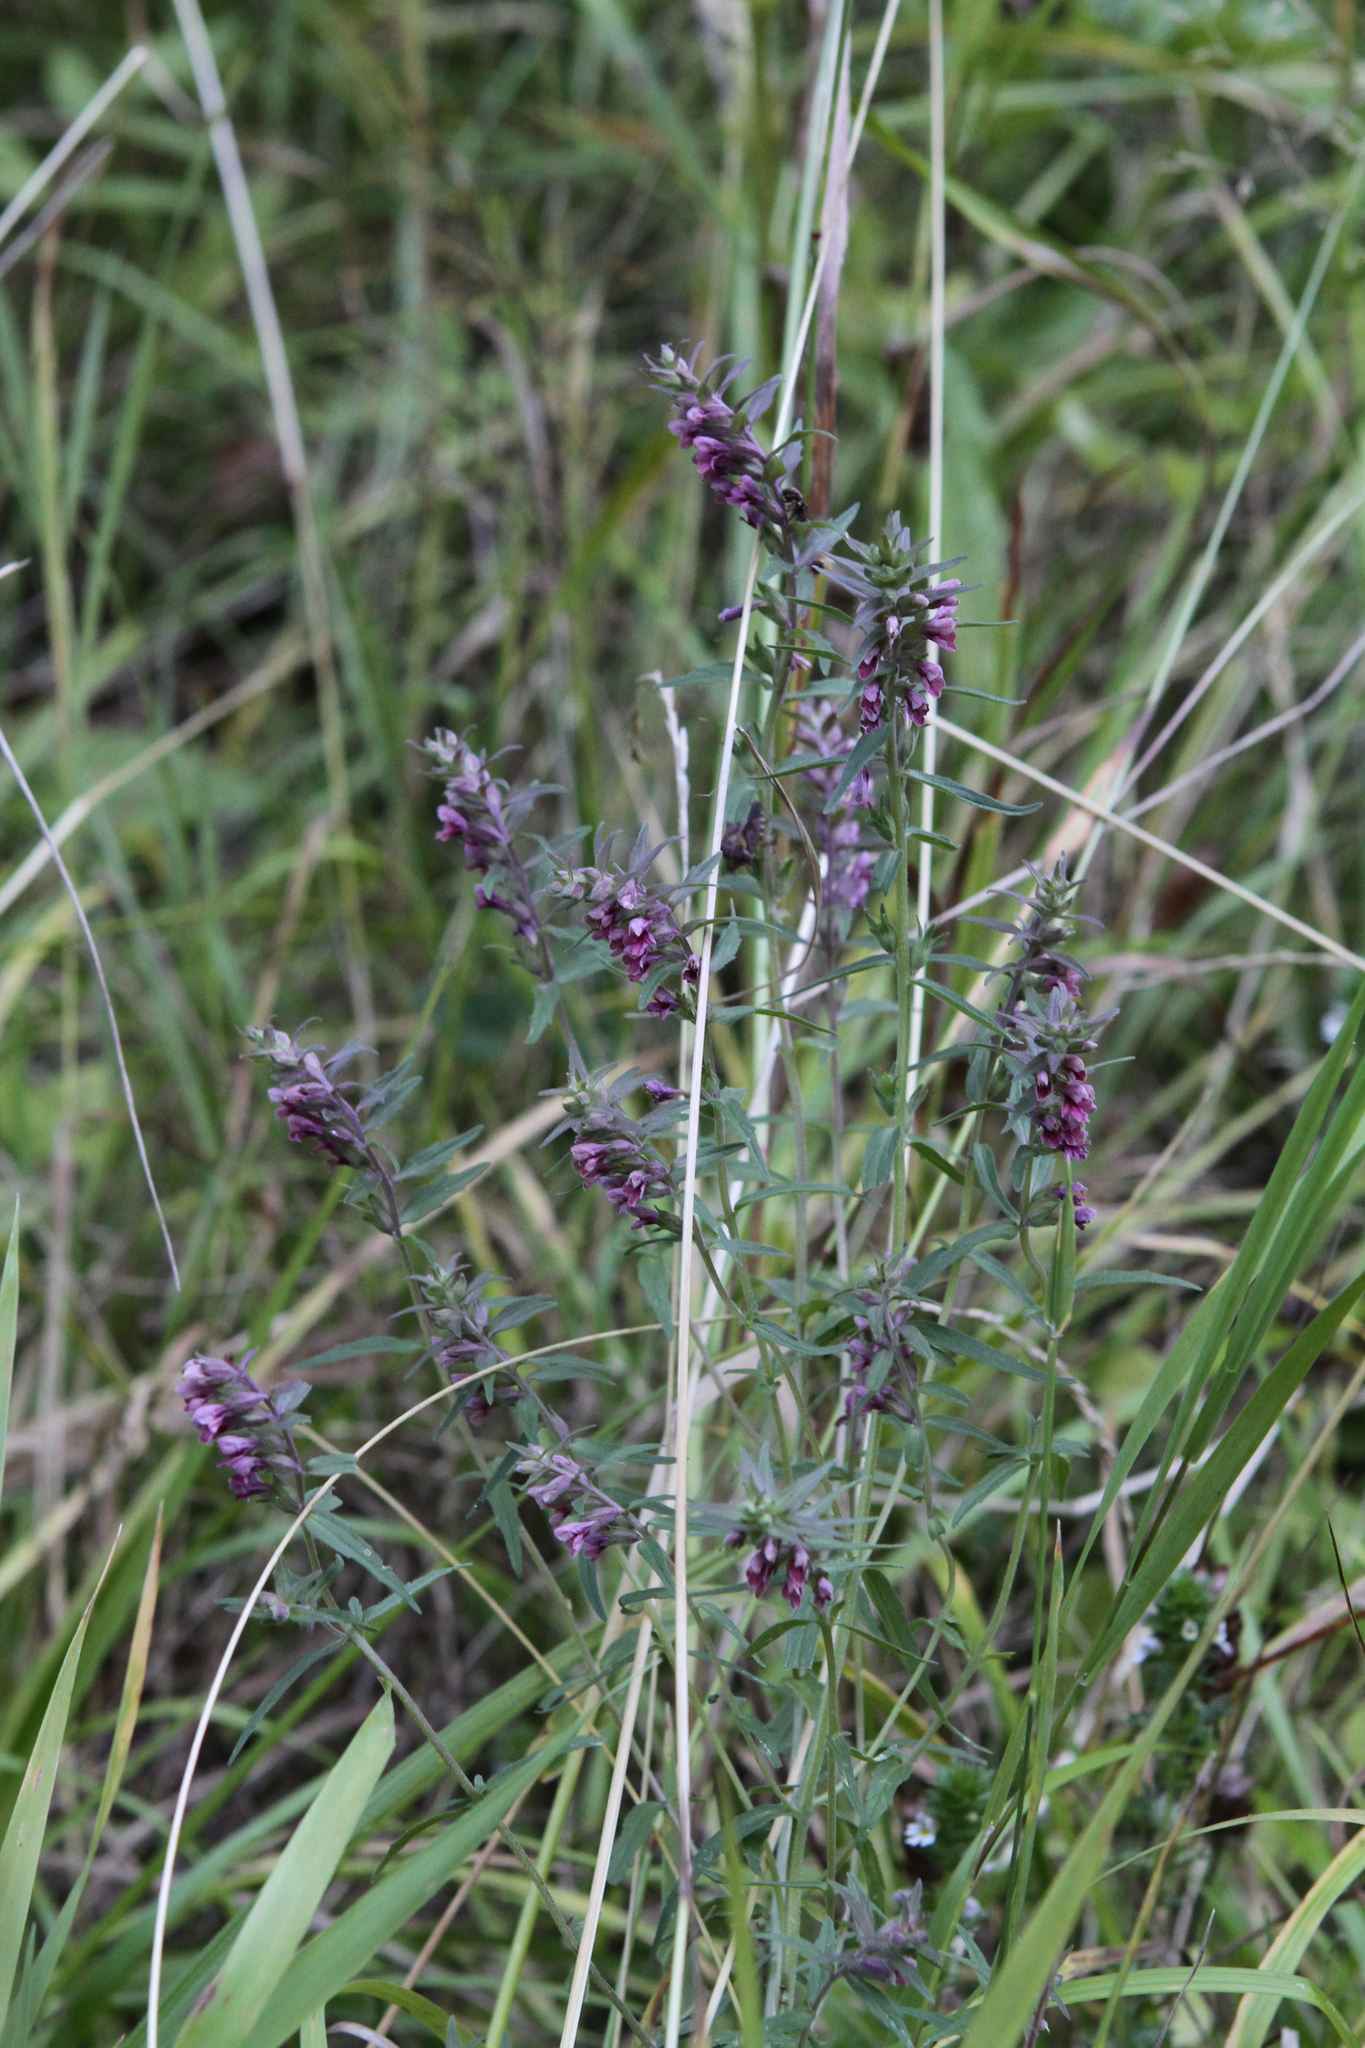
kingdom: Plantae
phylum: Tracheophyta
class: Magnoliopsida
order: Lamiales
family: Orobanchaceae
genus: Odontites
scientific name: Odontites vulgaris
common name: Broomrape
